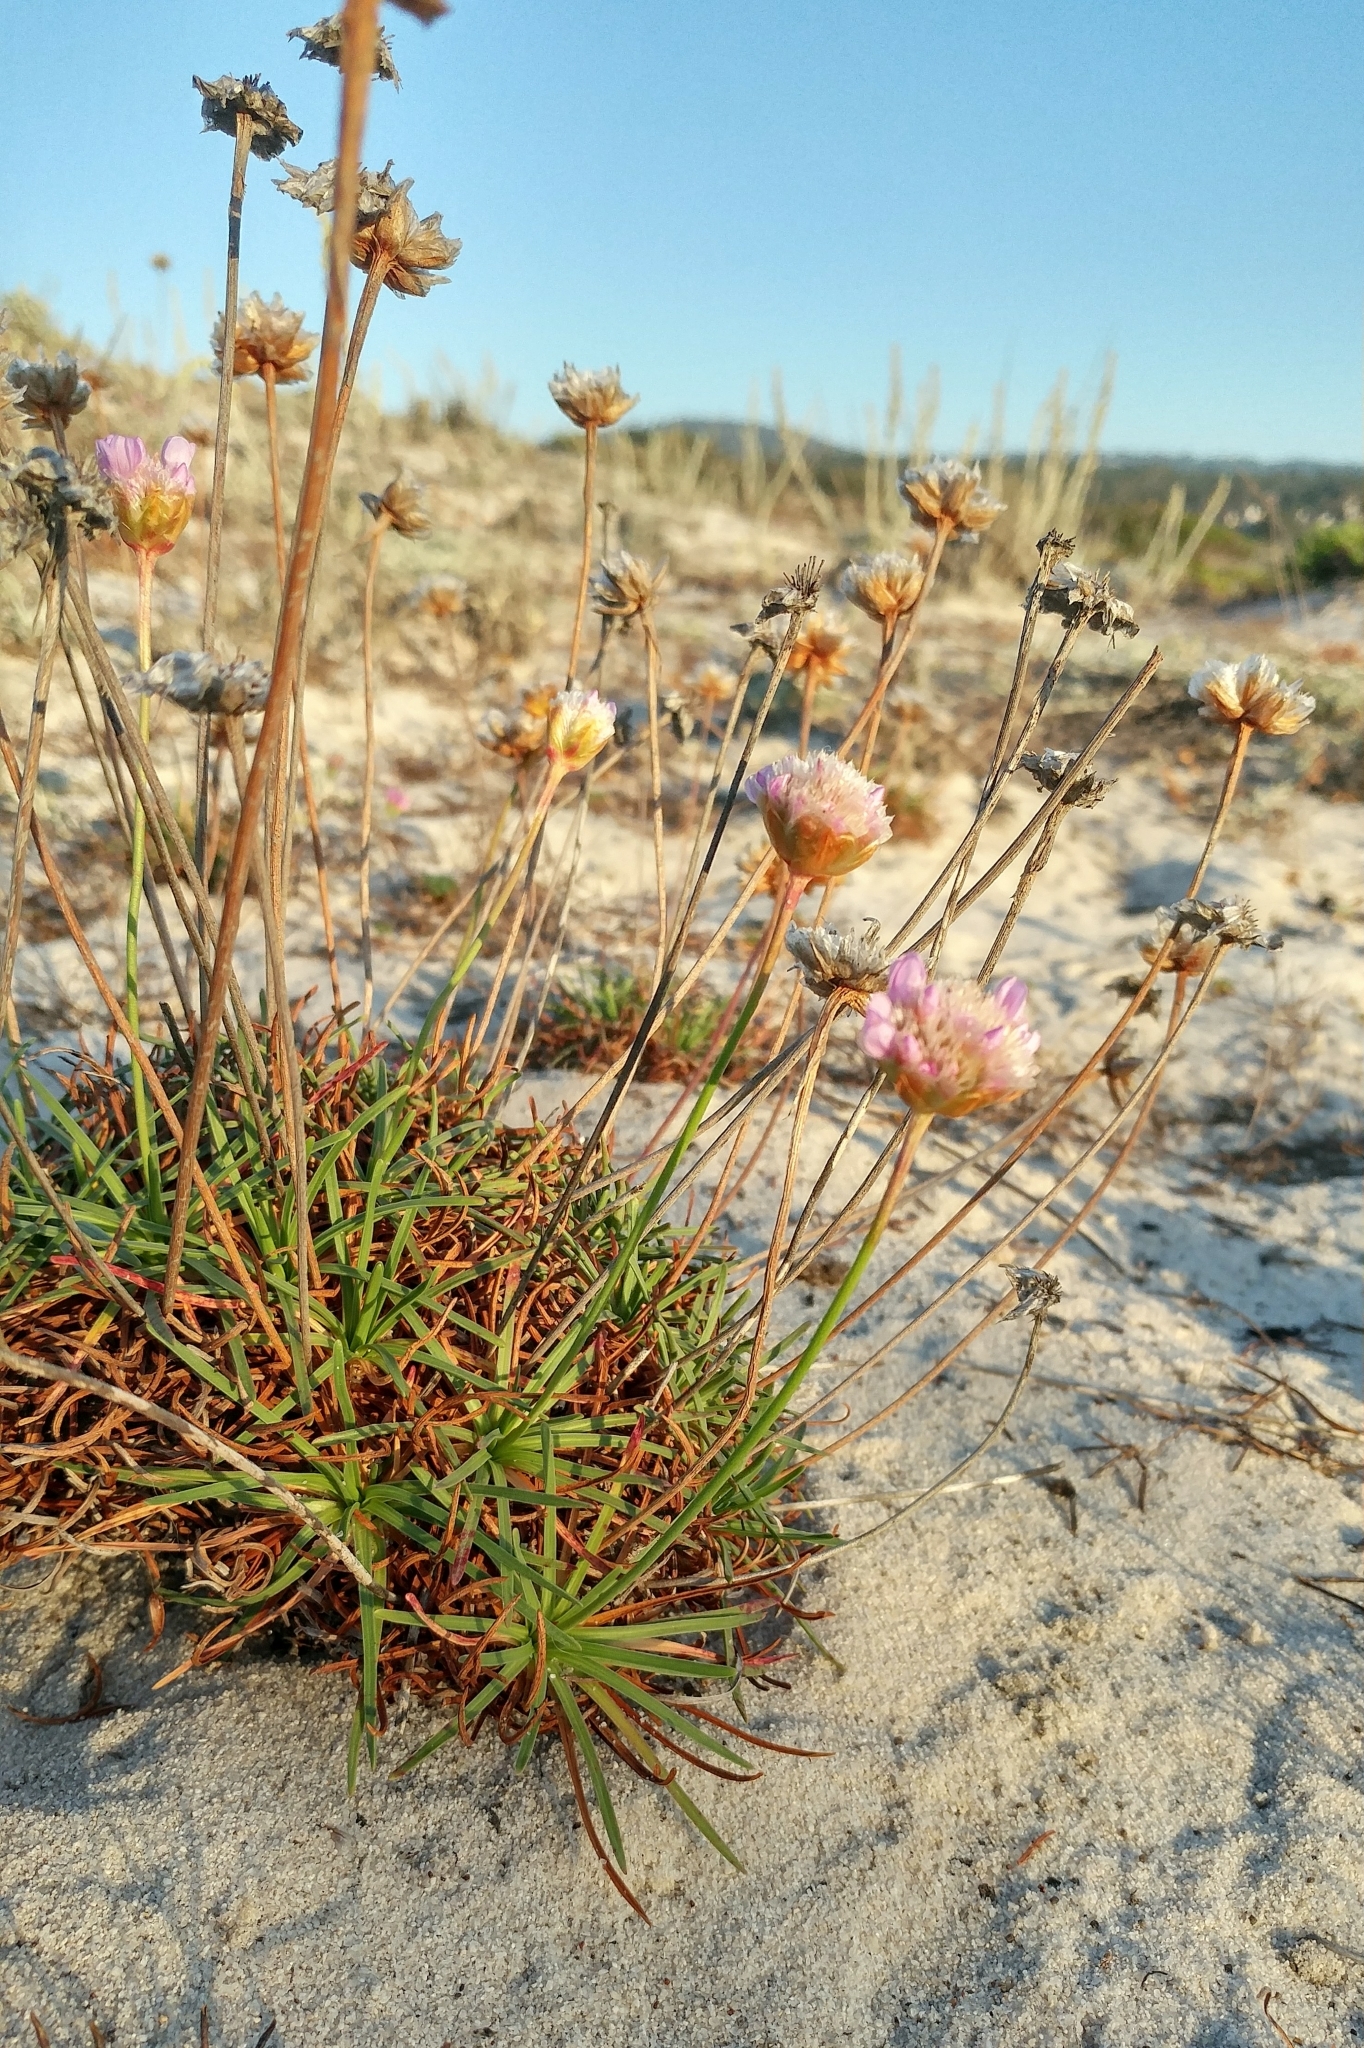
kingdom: Plantae
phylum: Tracheophyta
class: Magnoliopsida
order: Caryophyllales
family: Plumbaginaceae
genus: Armeria
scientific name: Armeria maritima
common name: Thrift
